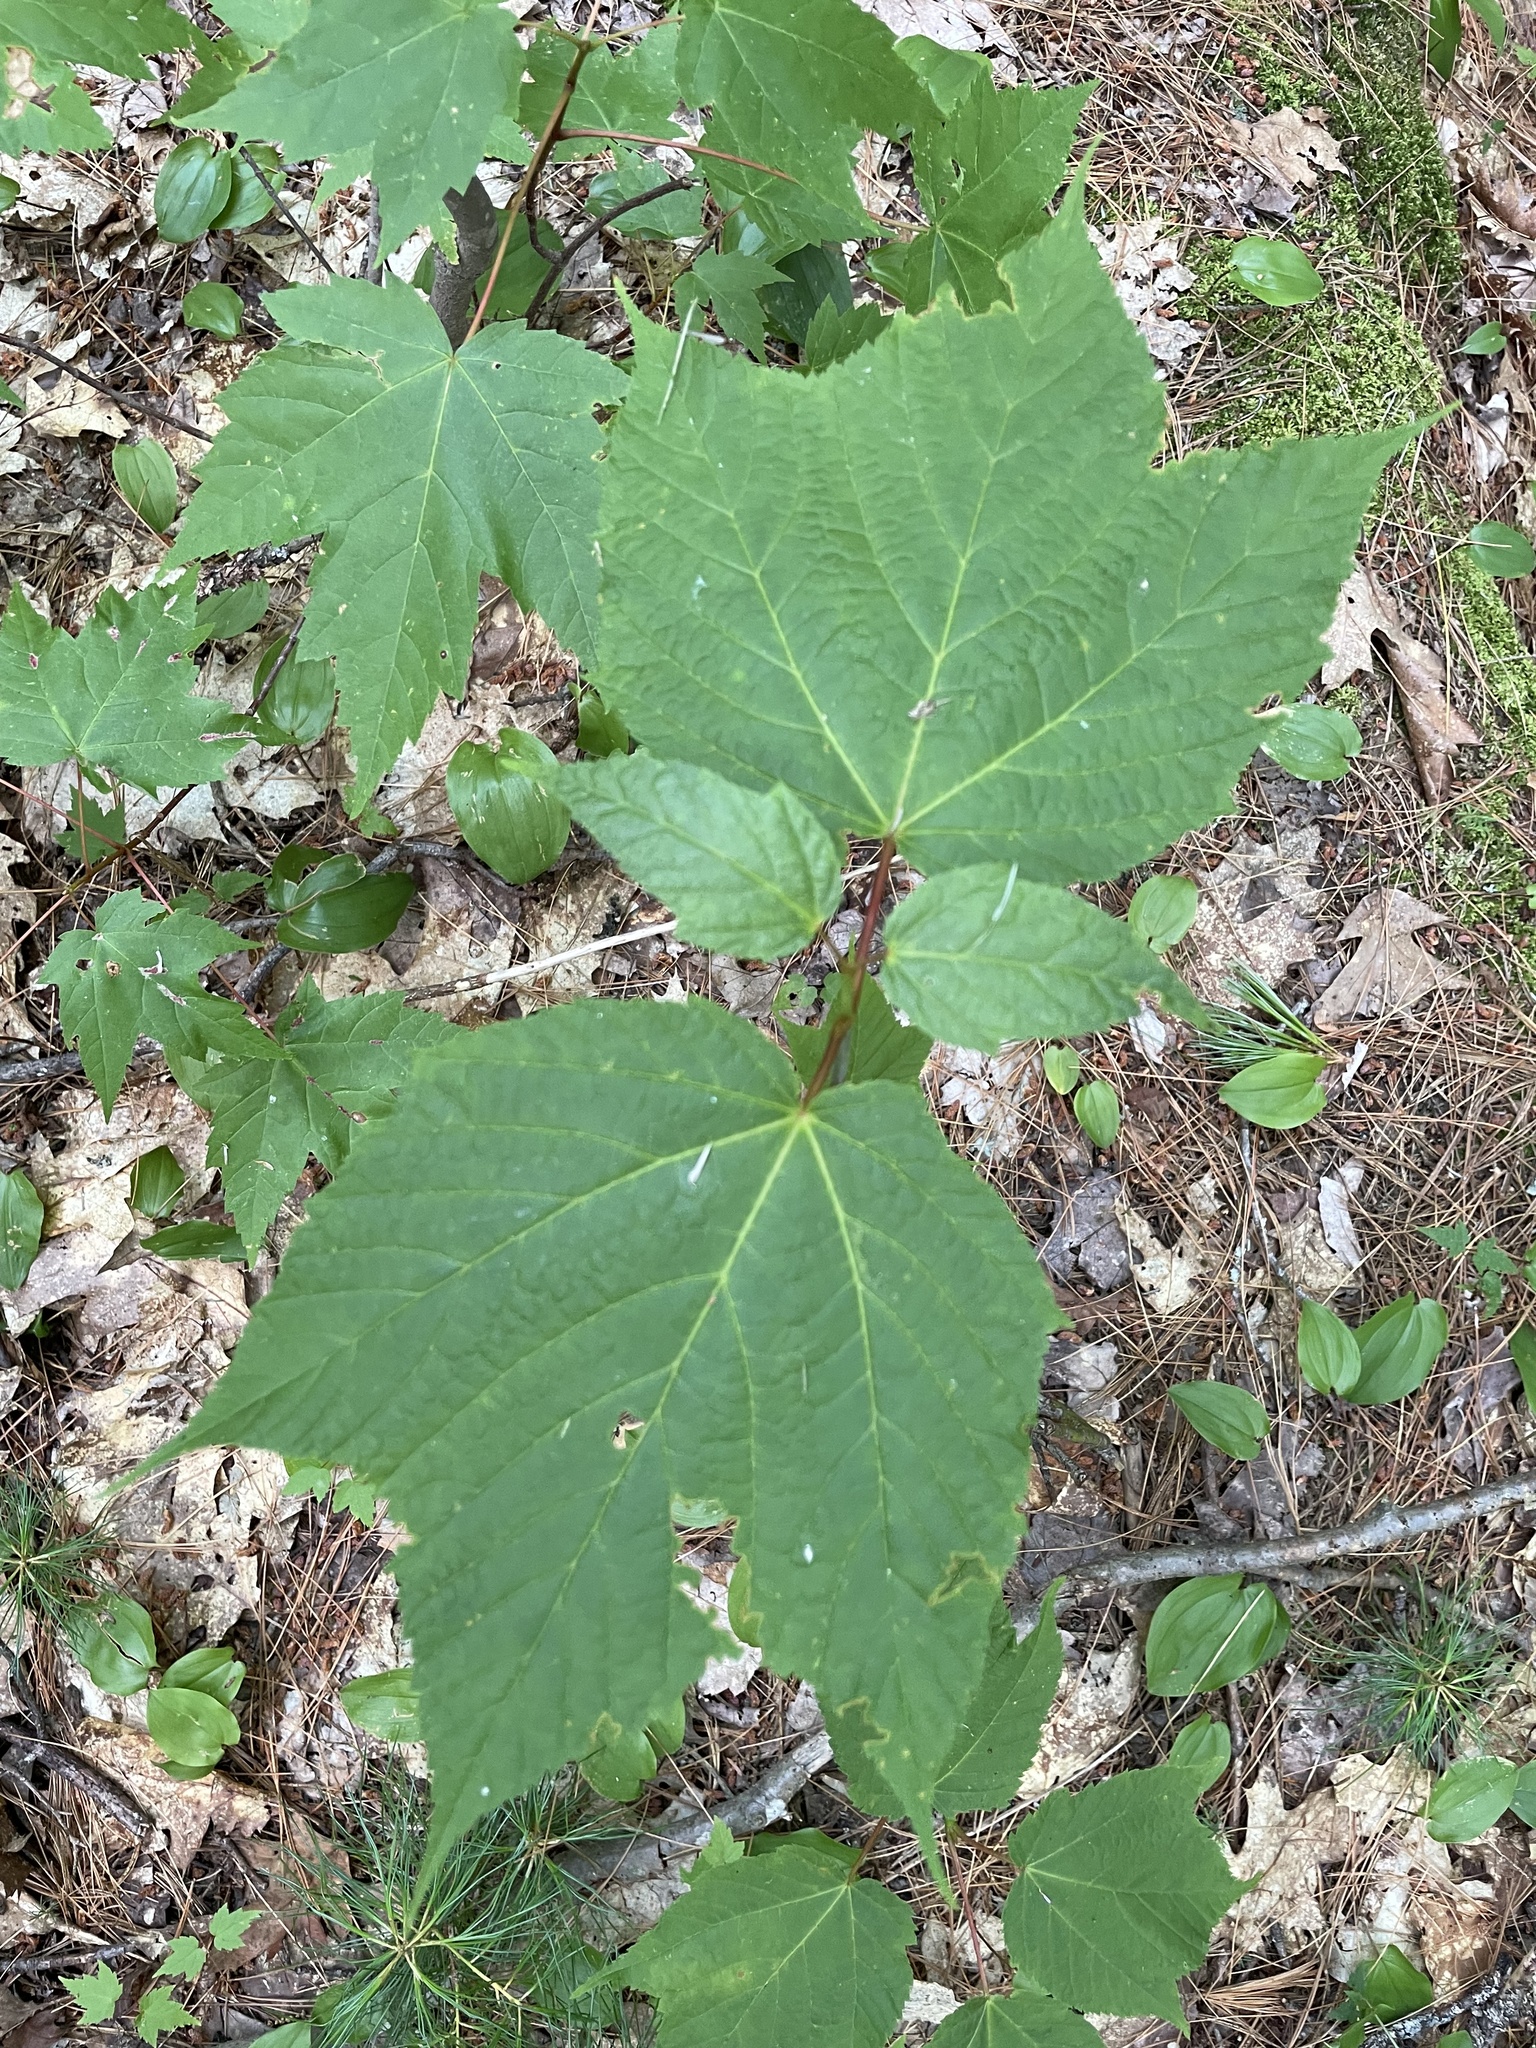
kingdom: Plantae
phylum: Tracheophyta
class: Magnoliopsida
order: Sapindales
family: Sapindaceae
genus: Acer
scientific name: Acer pensylvanicum
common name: Moosewood
